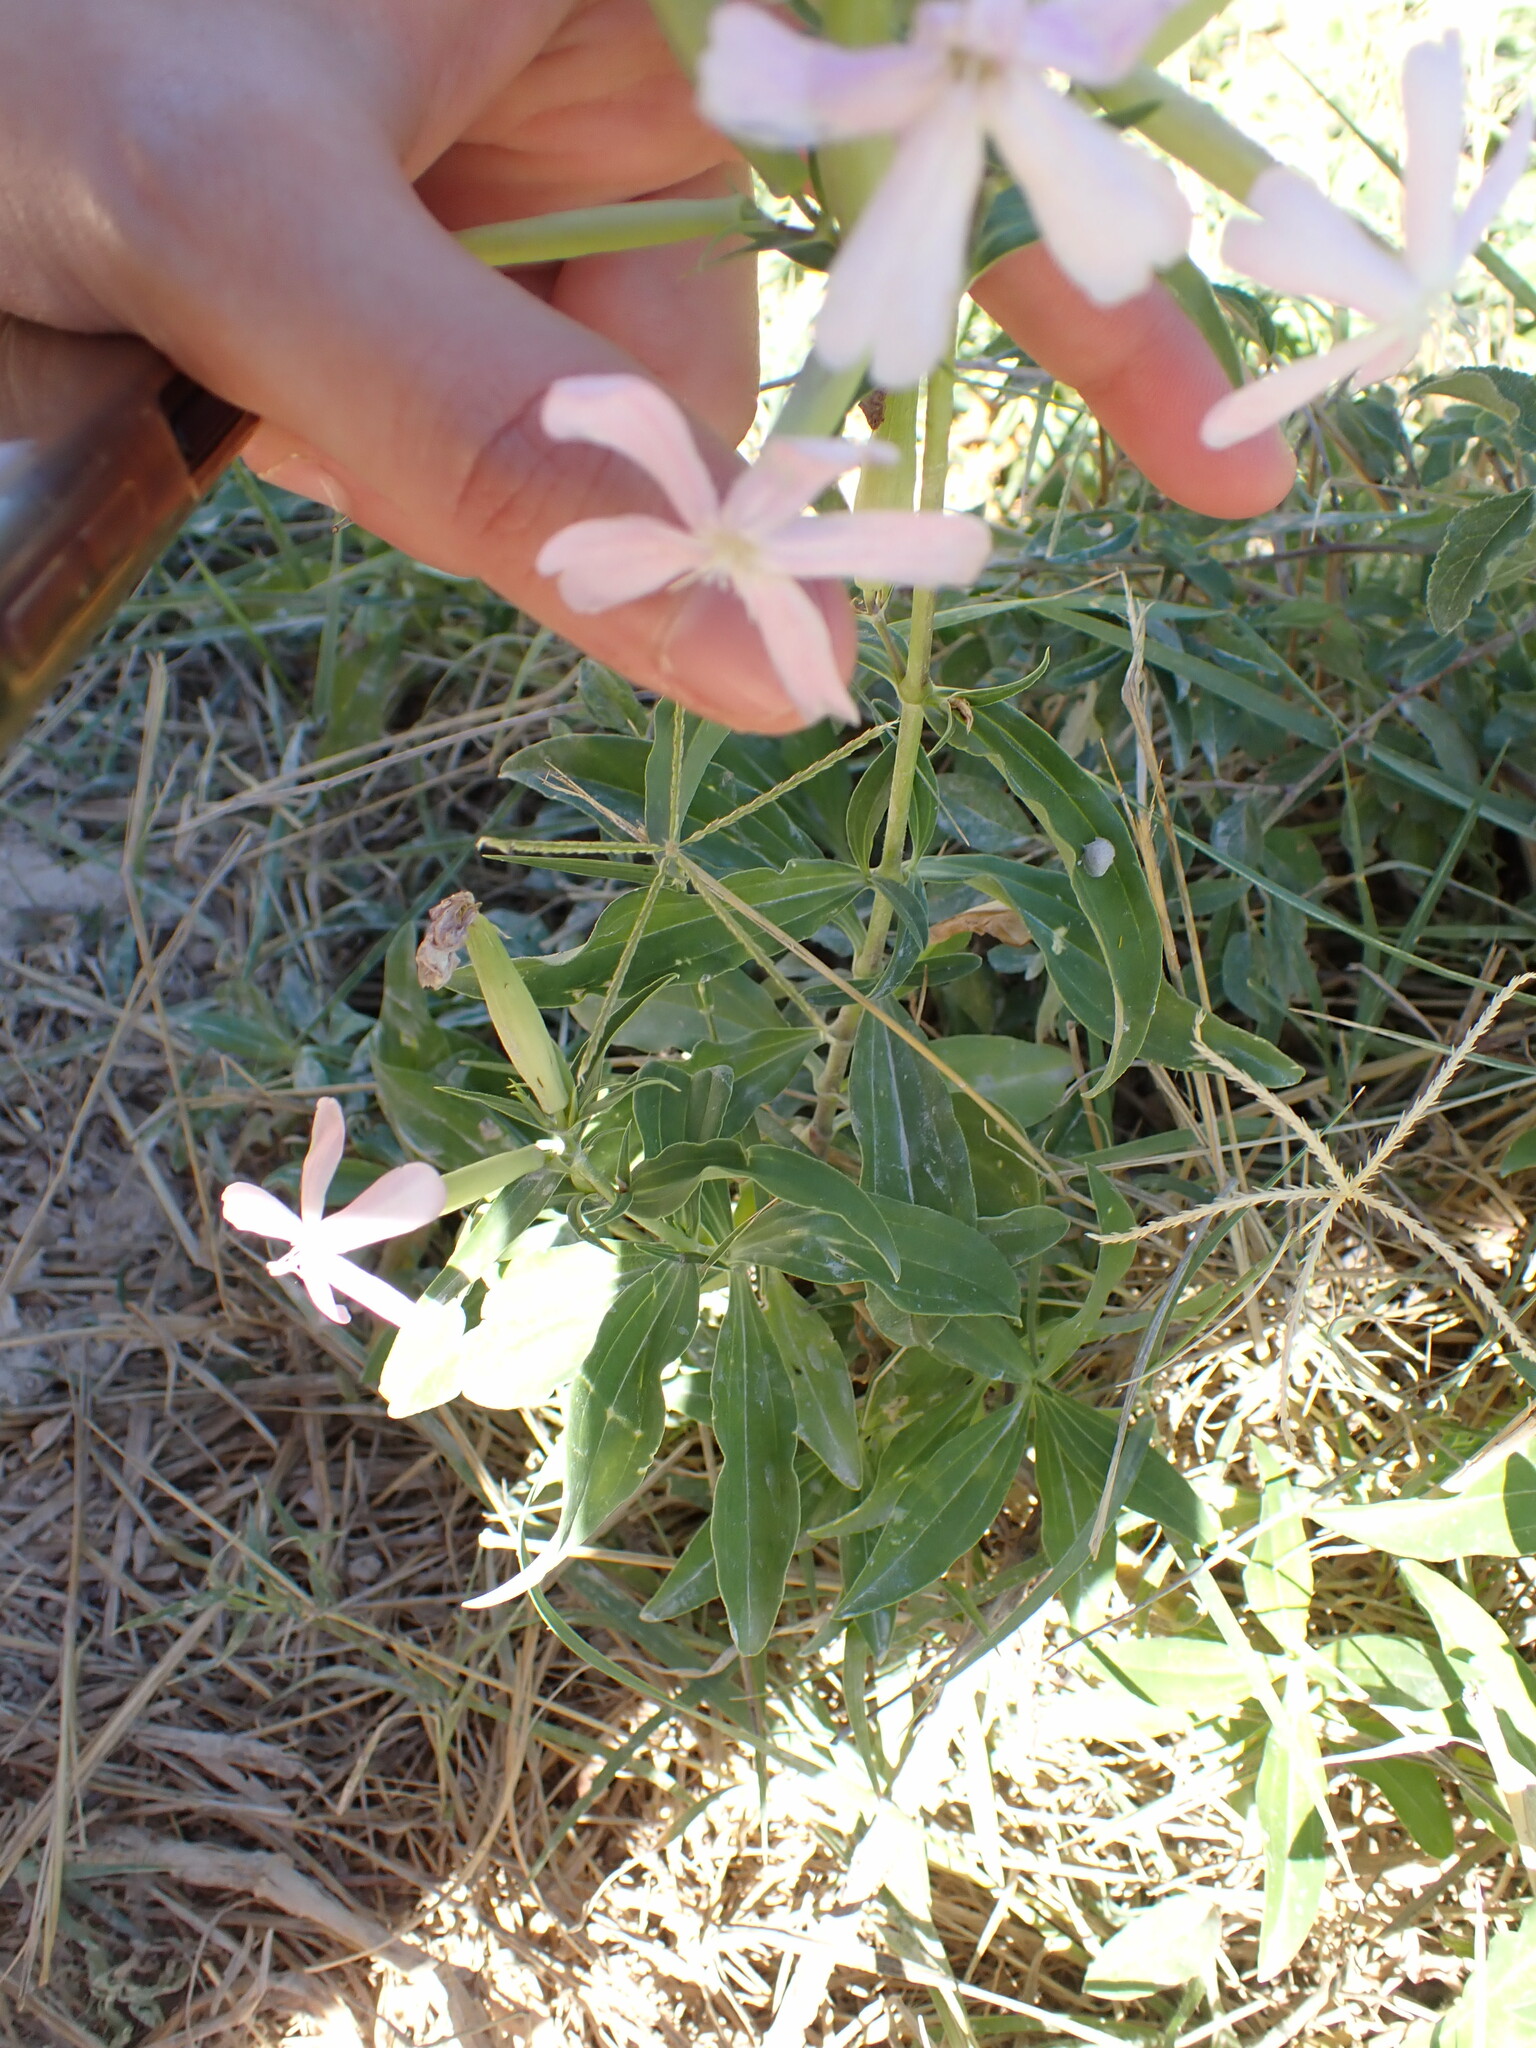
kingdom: Plantae
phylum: Tracheophyta
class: Magnoliopsida
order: Caryophyllales
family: Caryophyllaceae
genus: Saponaria
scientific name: Saponaria officinalis
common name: Soapwort
